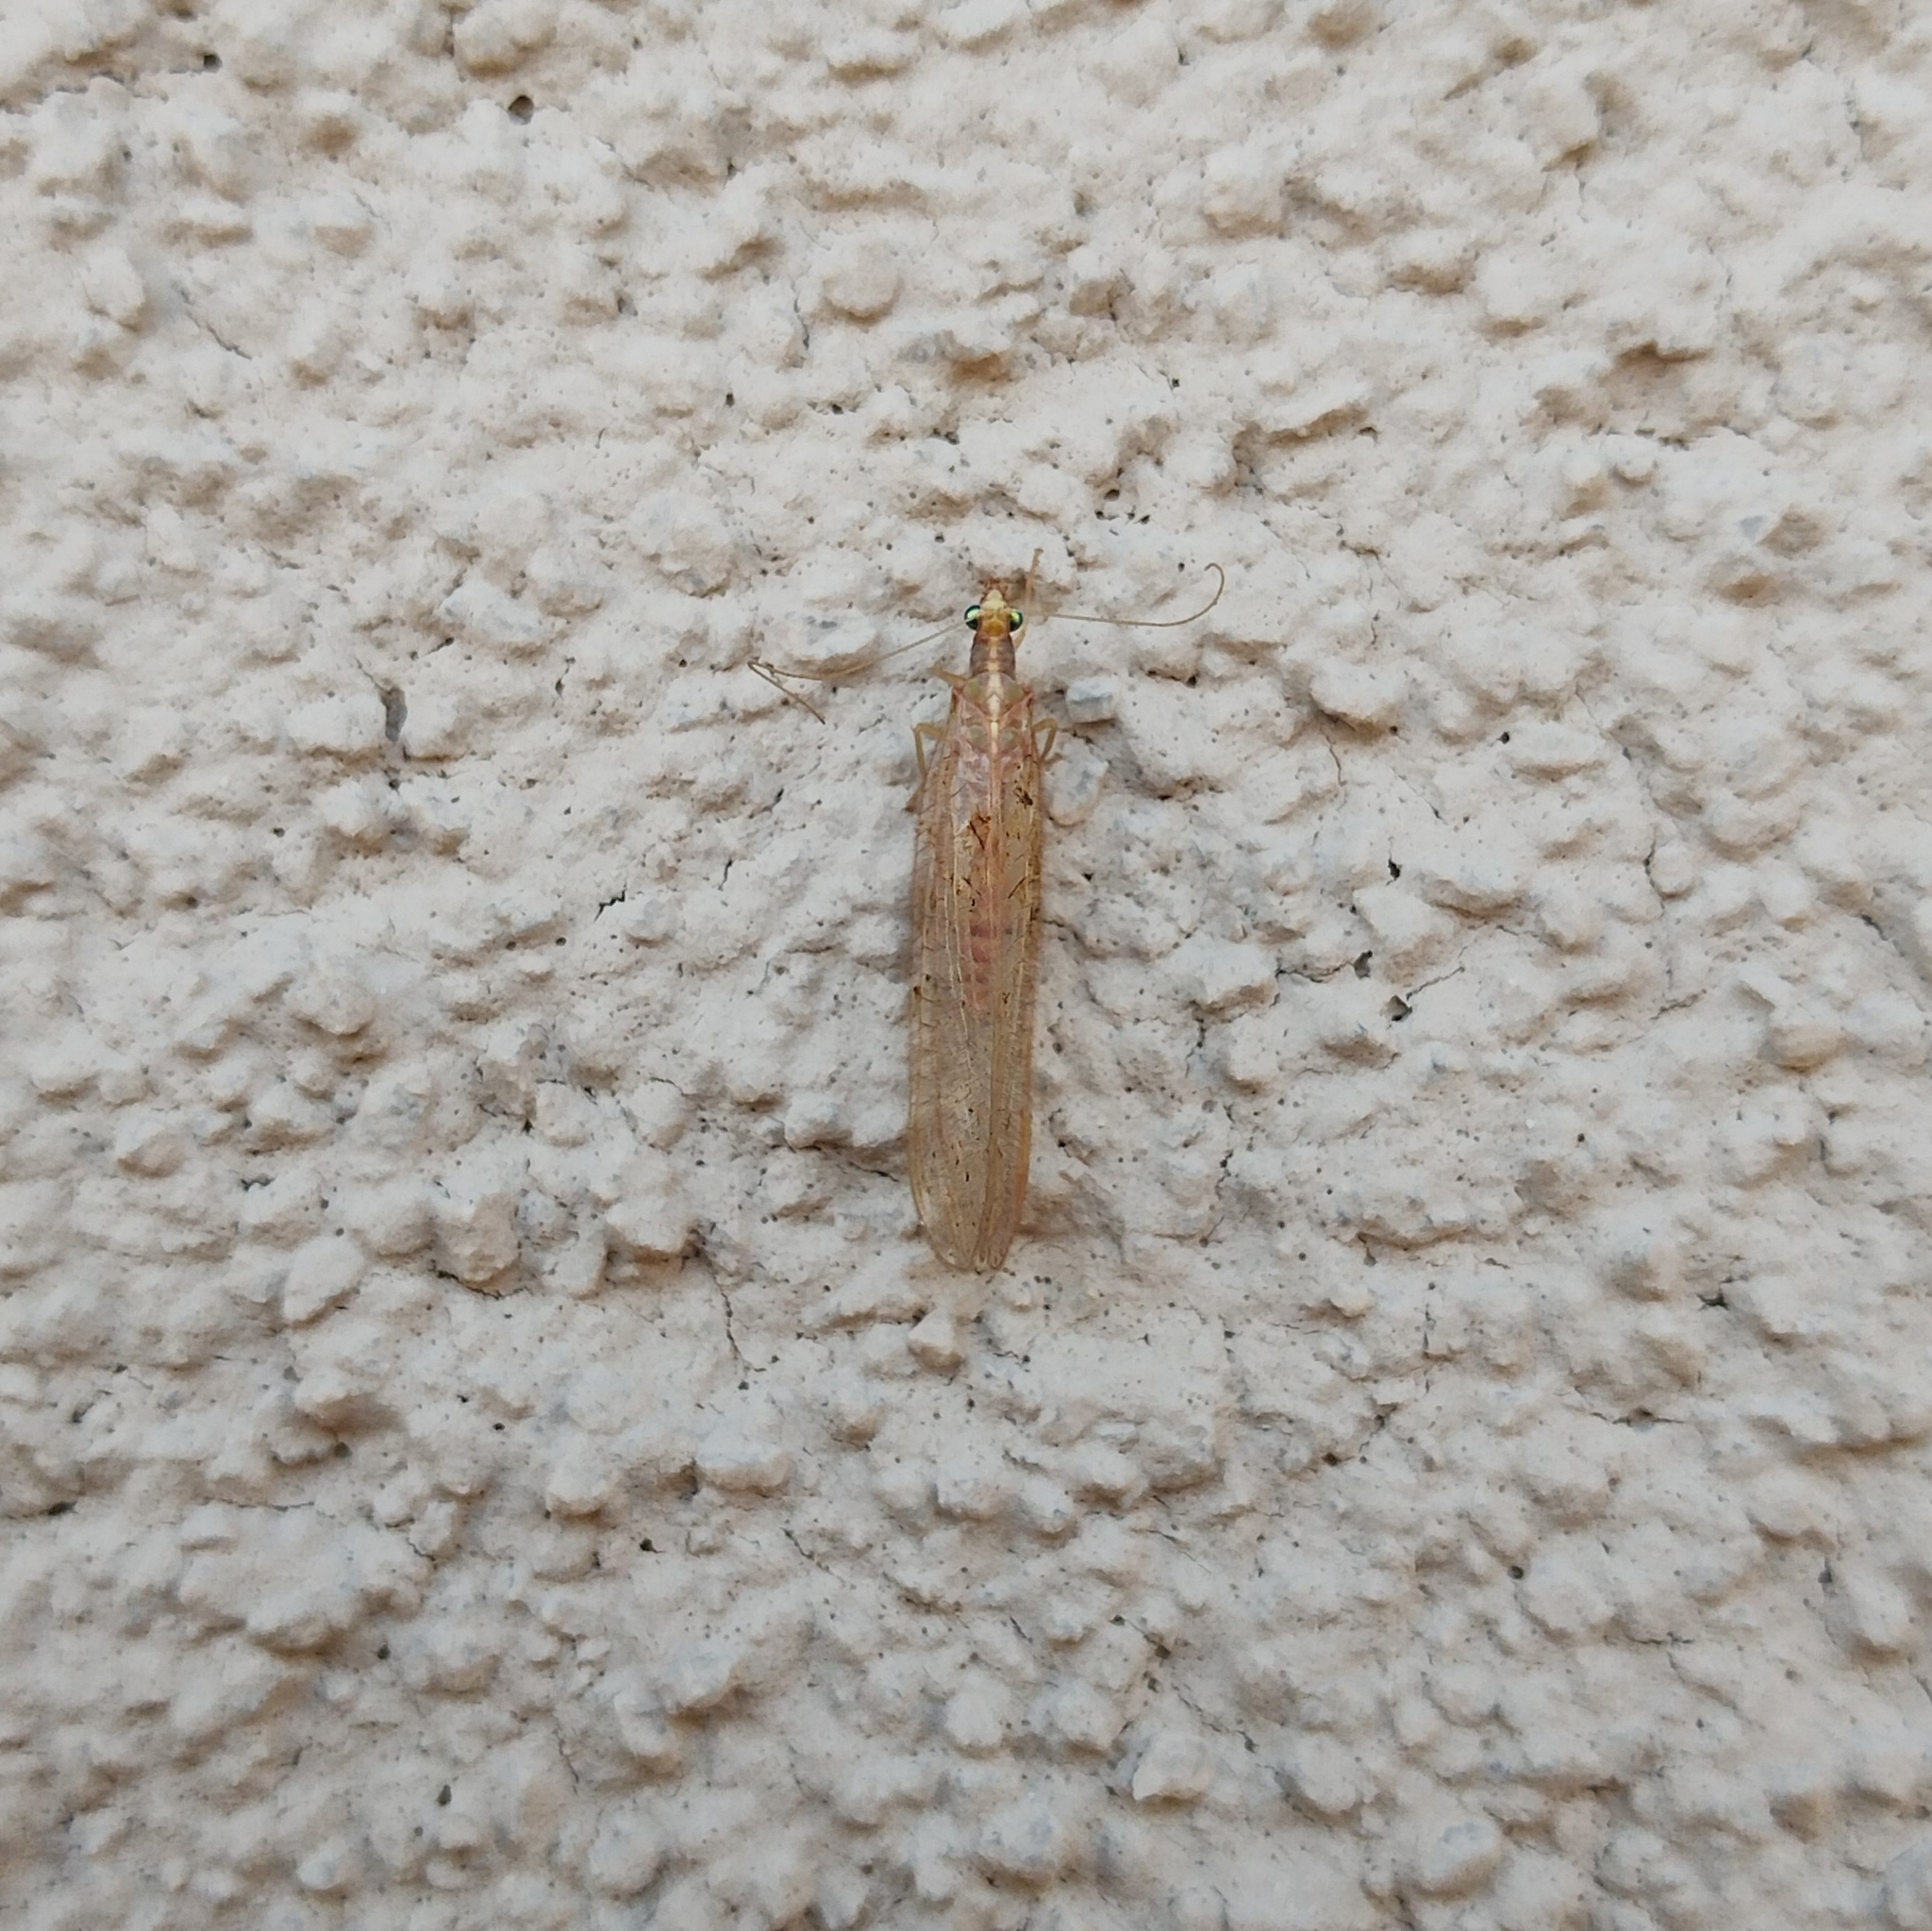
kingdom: Animalia
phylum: Arthropoda
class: Insecta
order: Neuroptera
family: Chrysopidae
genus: Chrysoperla
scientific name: Chrysoperla
